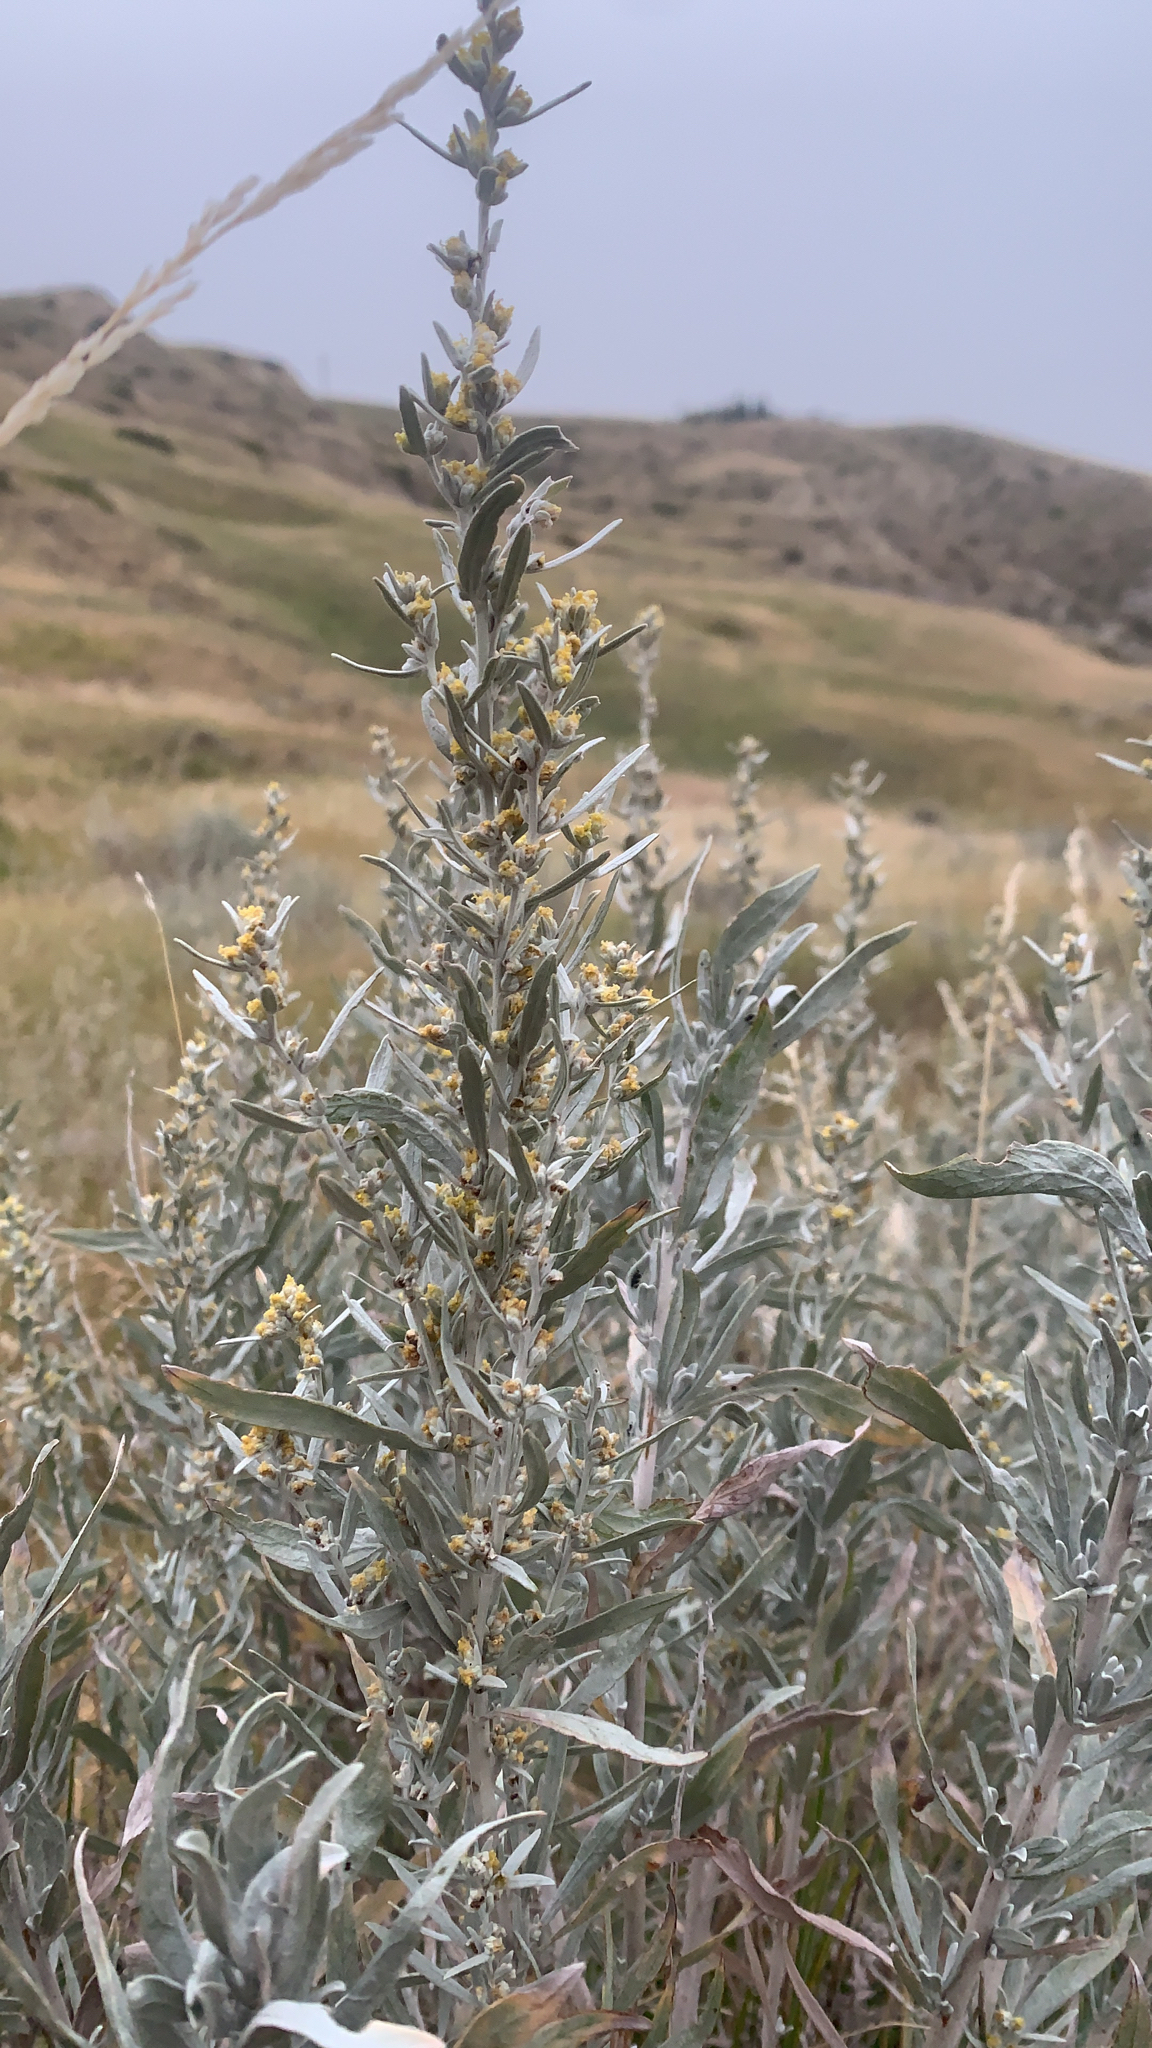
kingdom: Plantae
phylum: Tracheophyta
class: Magnoliopsida
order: Asterales
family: Asteraceae
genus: Artemisia
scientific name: Artemisia cana
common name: Silver sagebrush
